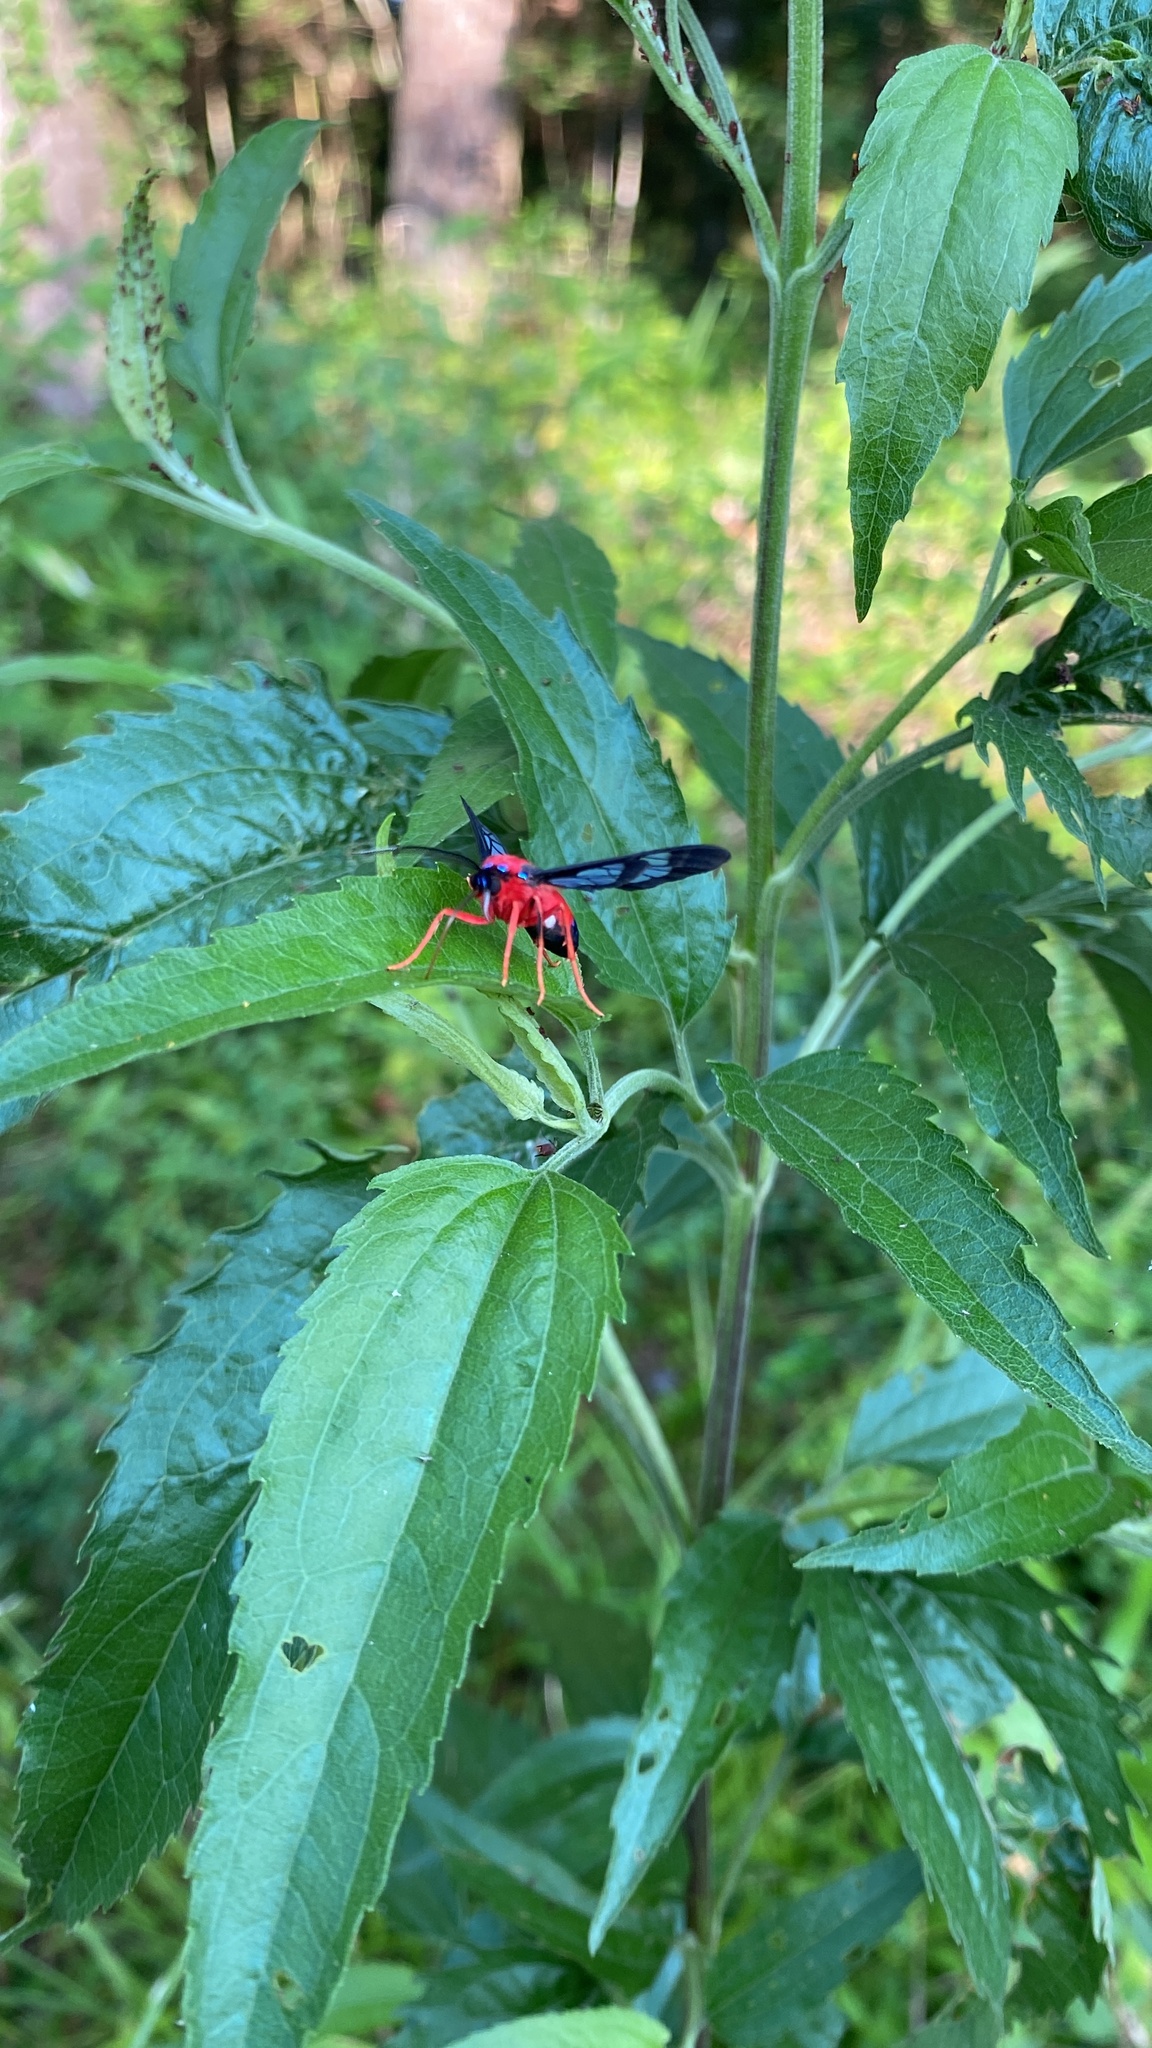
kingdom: Animalia
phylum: Arthropoda
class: Insecta
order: Lepidoptera
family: Erebidae
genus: Cosmosoma
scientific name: Cosmosoma myrodora
